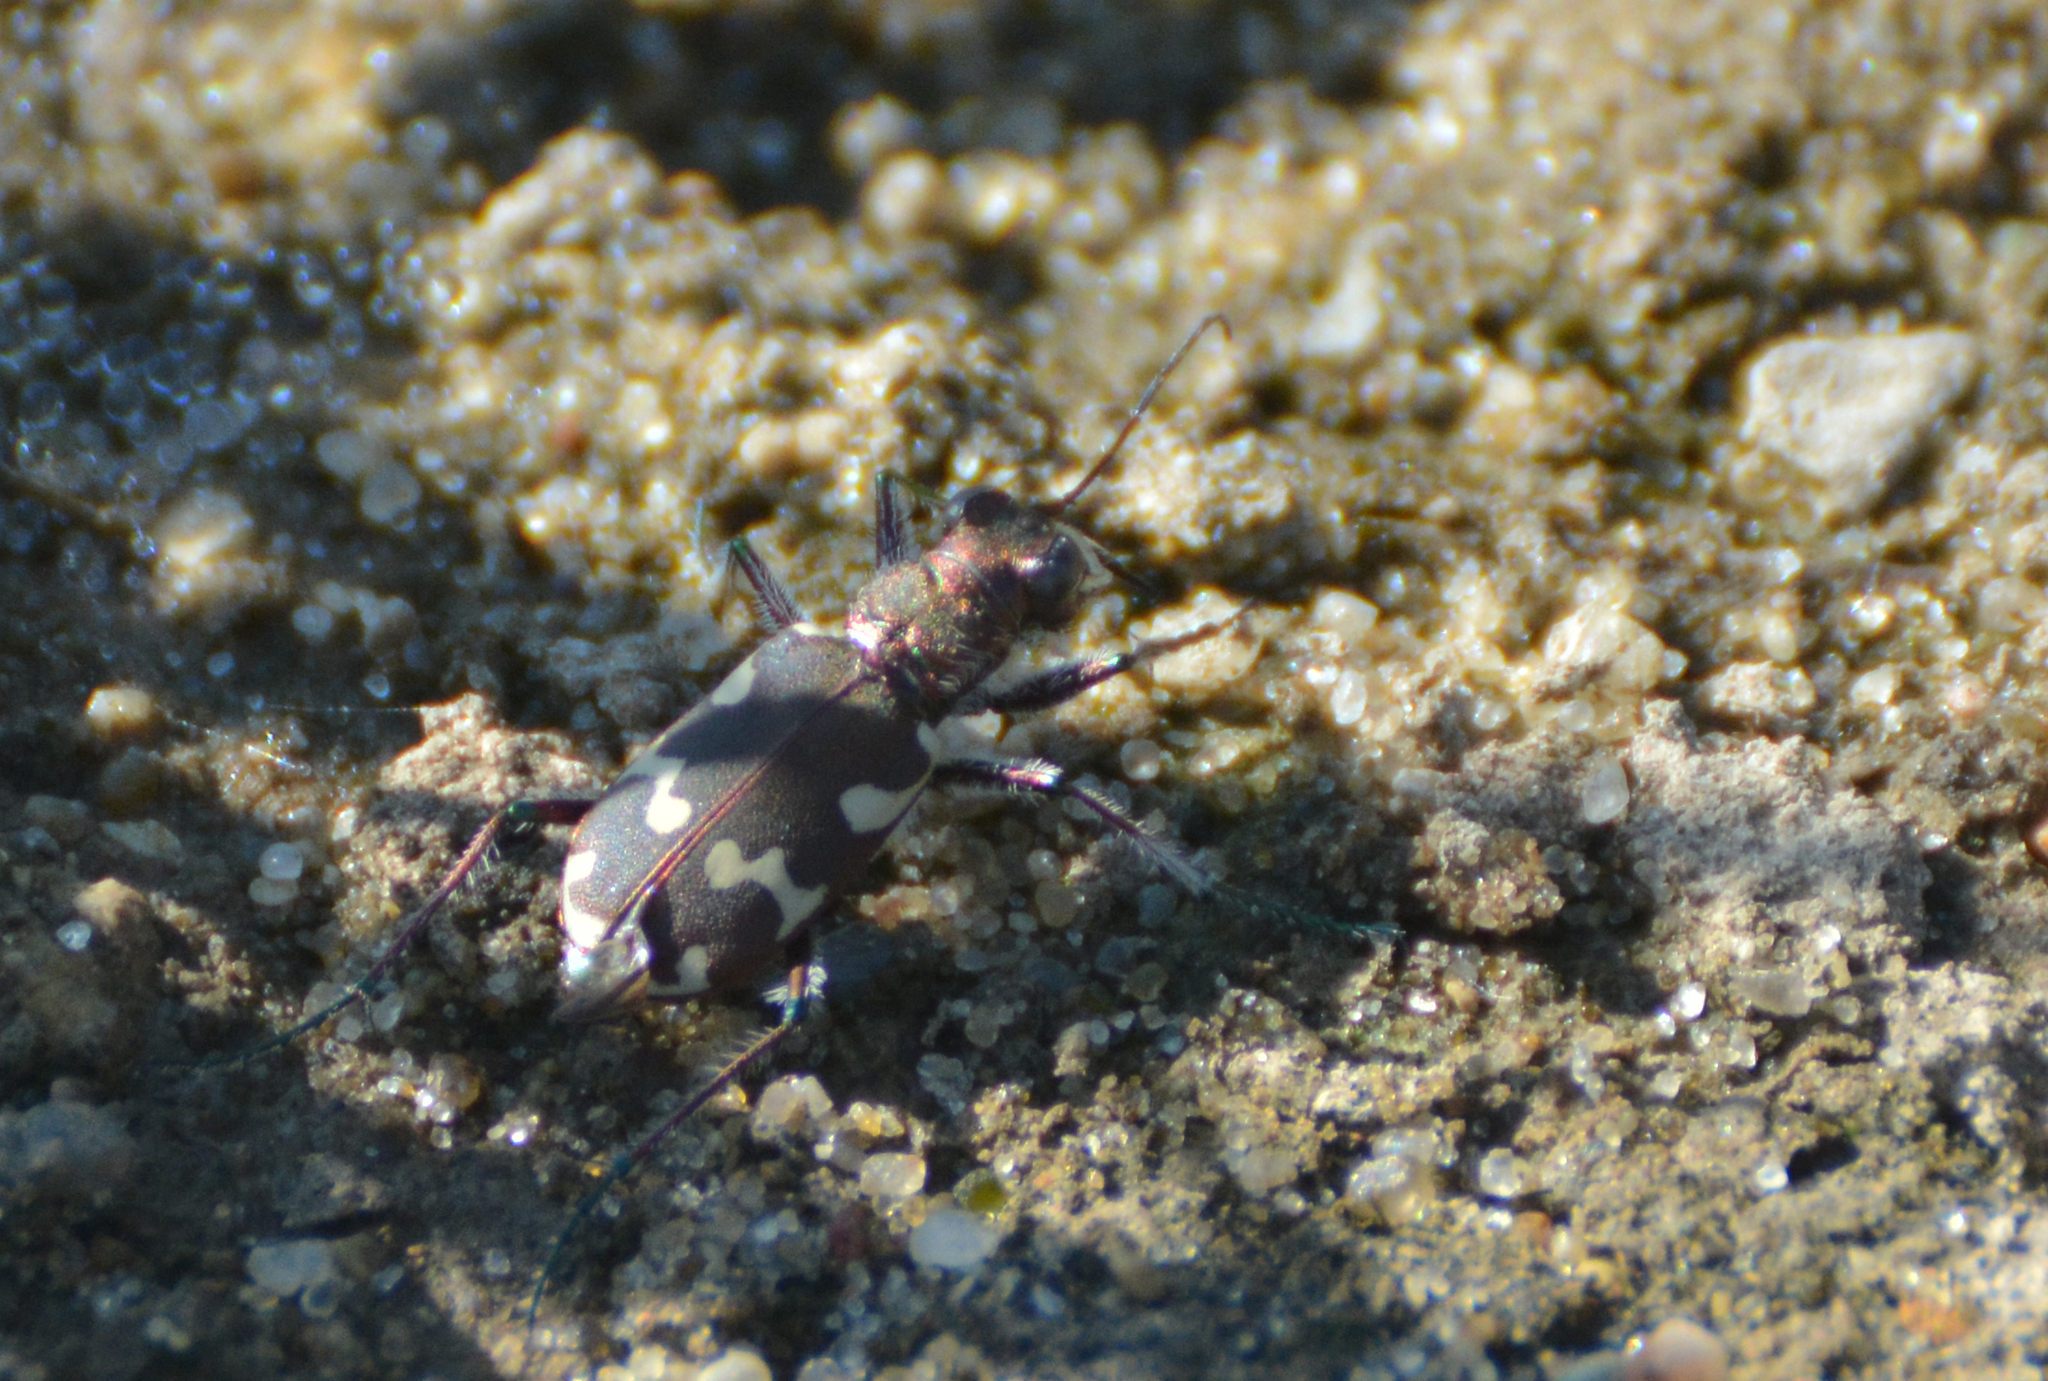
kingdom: Animalia
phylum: Arthropoda
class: Insecta
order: Coleoptera
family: Carabidae
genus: Cicindela
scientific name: Cicindela hybrida
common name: Northern dune tiger beetle
